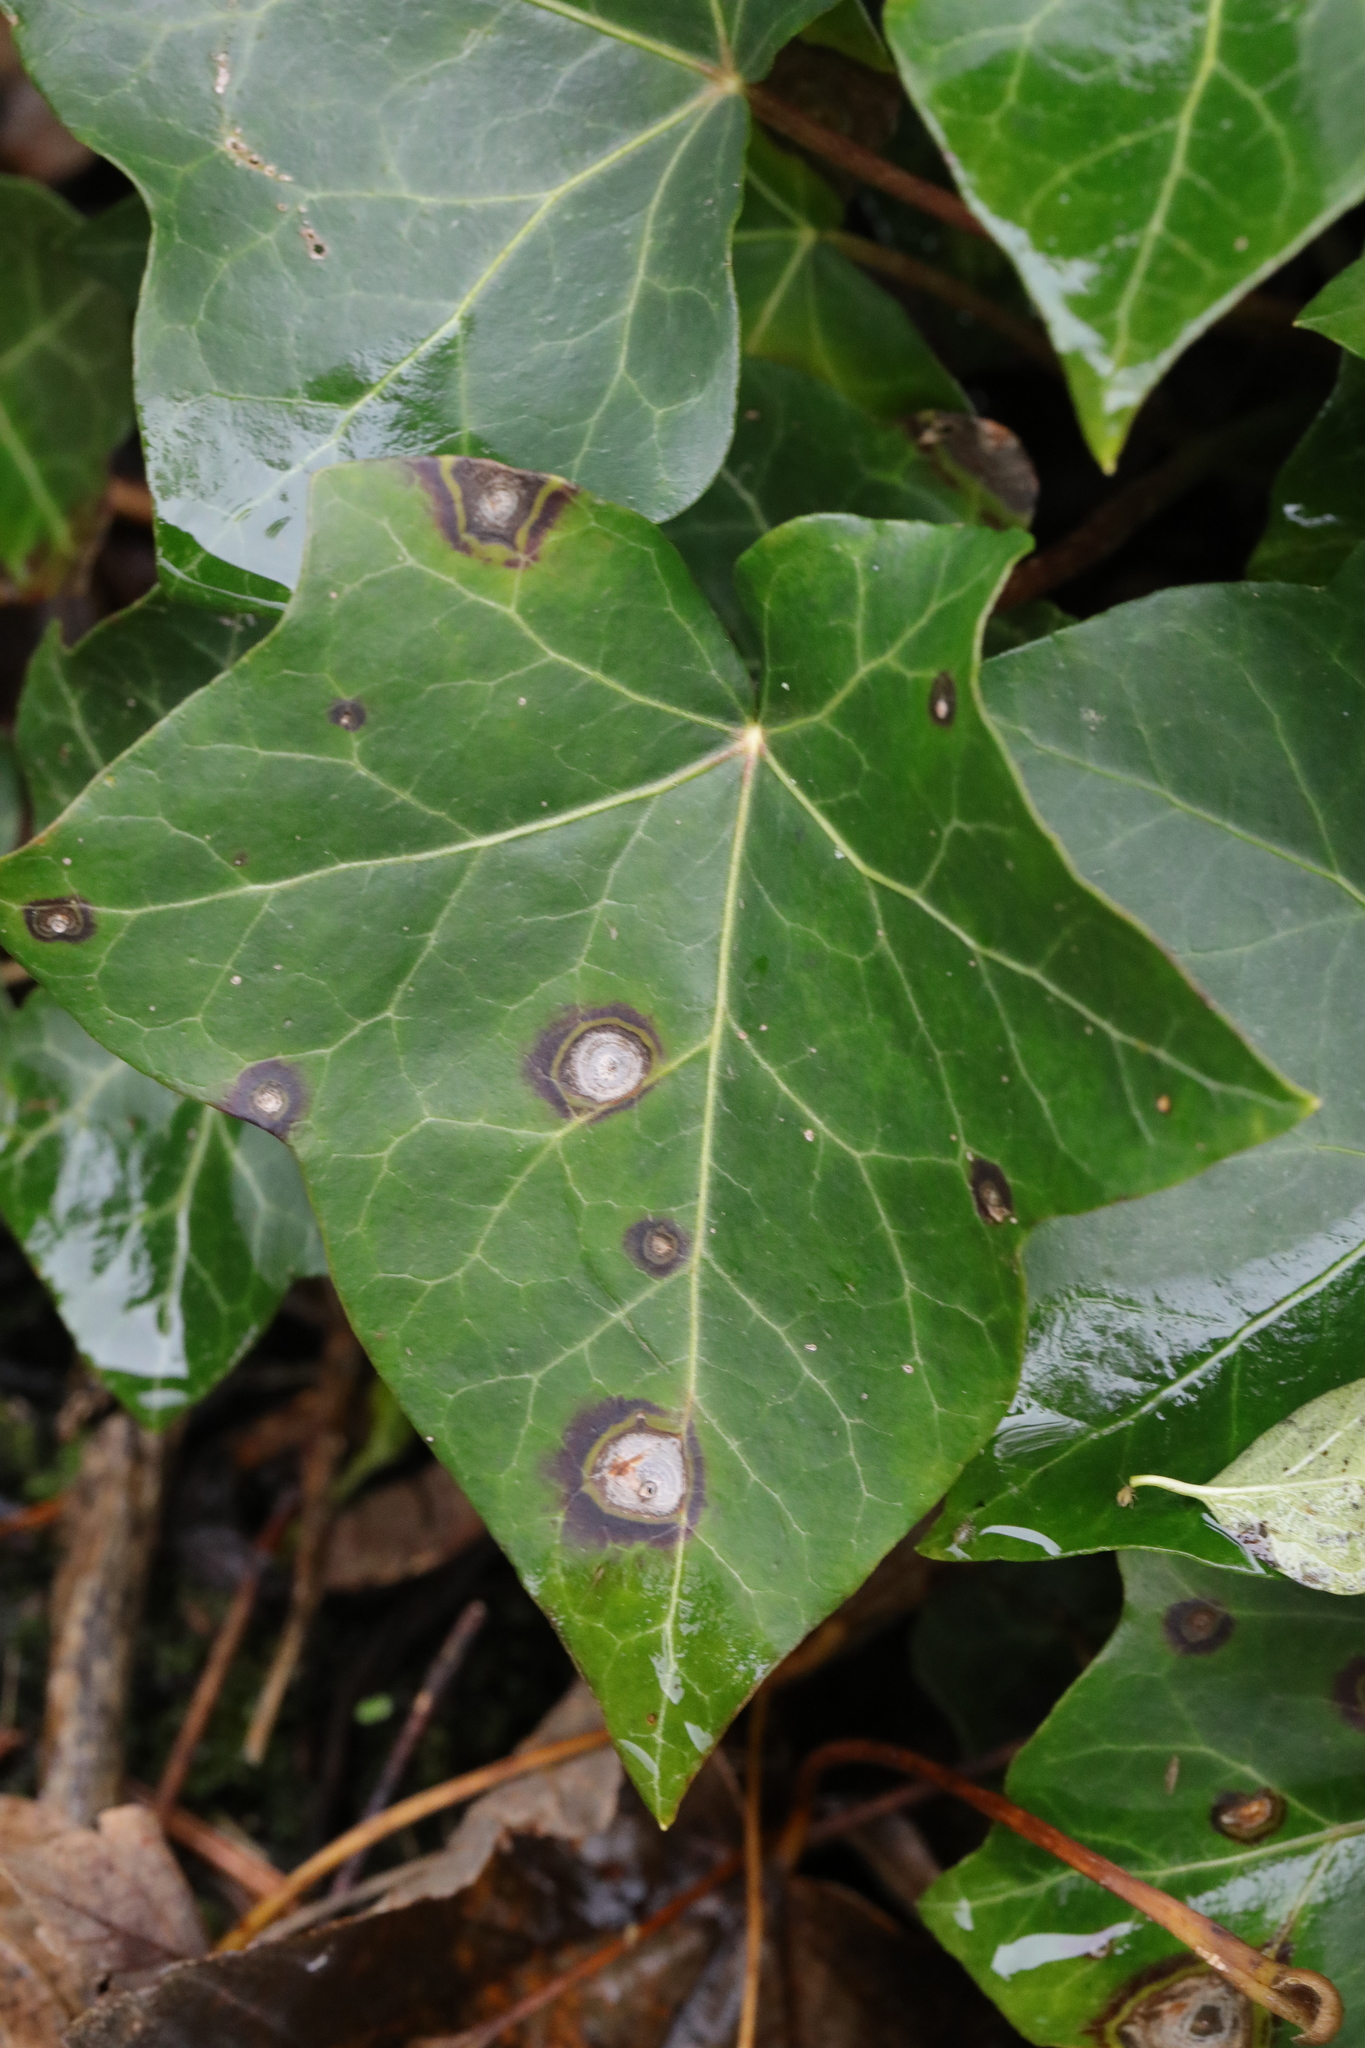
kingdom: Fungi
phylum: Ascomycota
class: Dothideomycetes
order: Pleosporales
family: Didymellaceae
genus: Boeremia
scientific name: Boeremia hedericola
